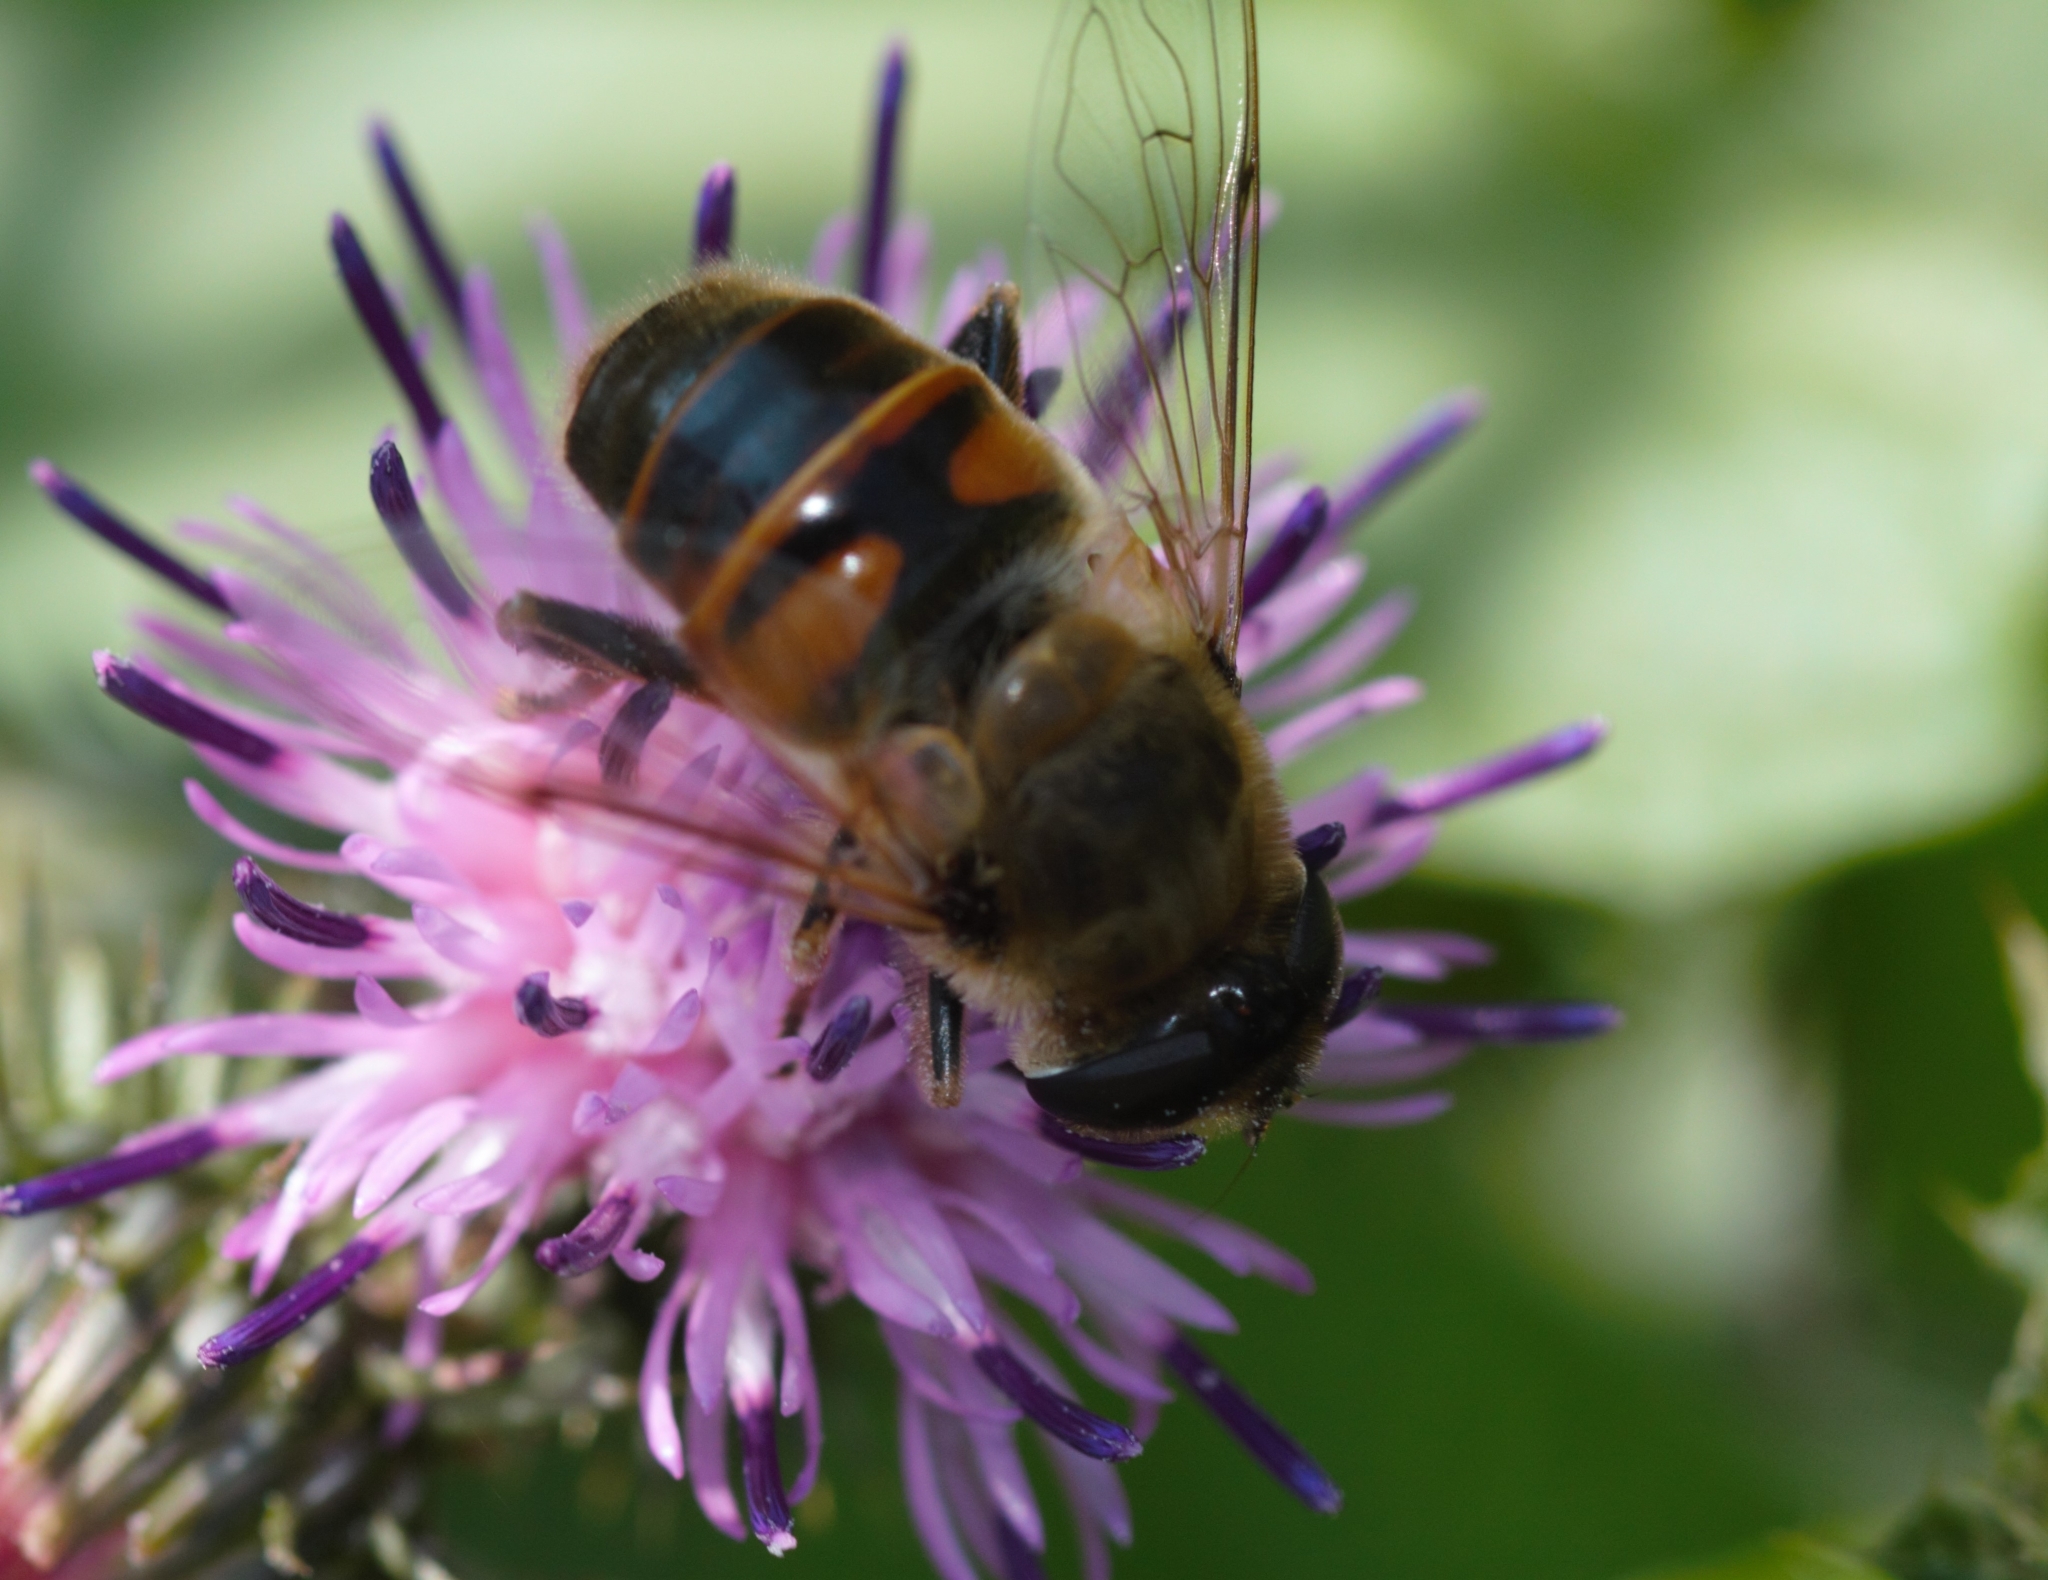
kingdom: Animalia
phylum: Arthropoda
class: Insecta
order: Diptera
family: Syrphidae
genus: Eristalis
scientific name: Eristalis tenax
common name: Drone fly
